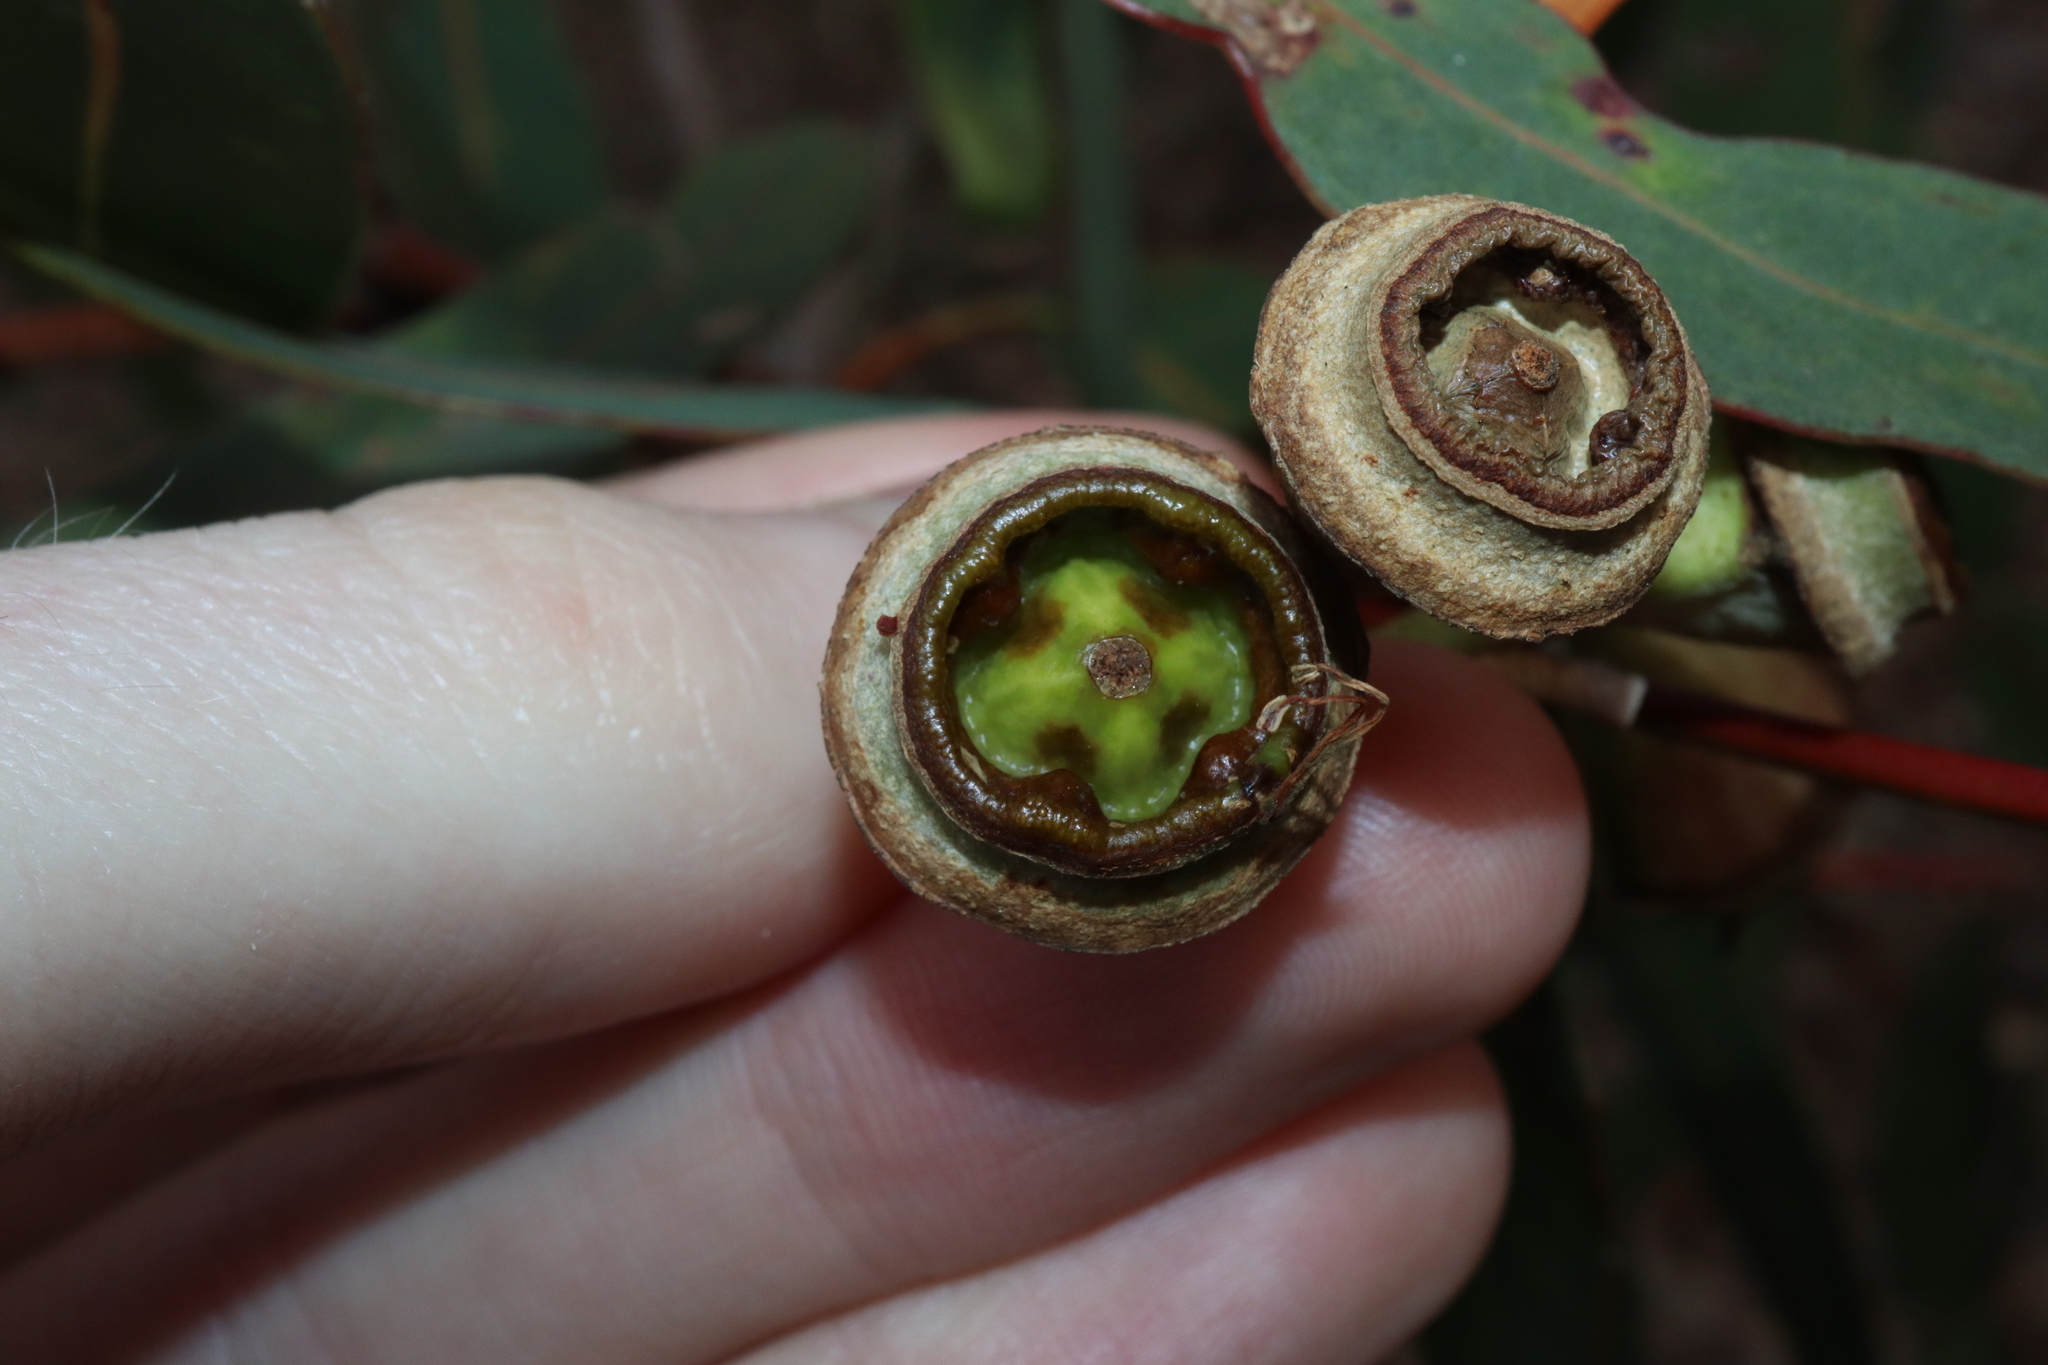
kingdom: Plantae
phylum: Tracheophyta
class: Magnoliopsida
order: Myrtales
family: Myrtaceae
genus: Eucalyptus
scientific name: Eucalyptus longifolia
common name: Woollybutt
